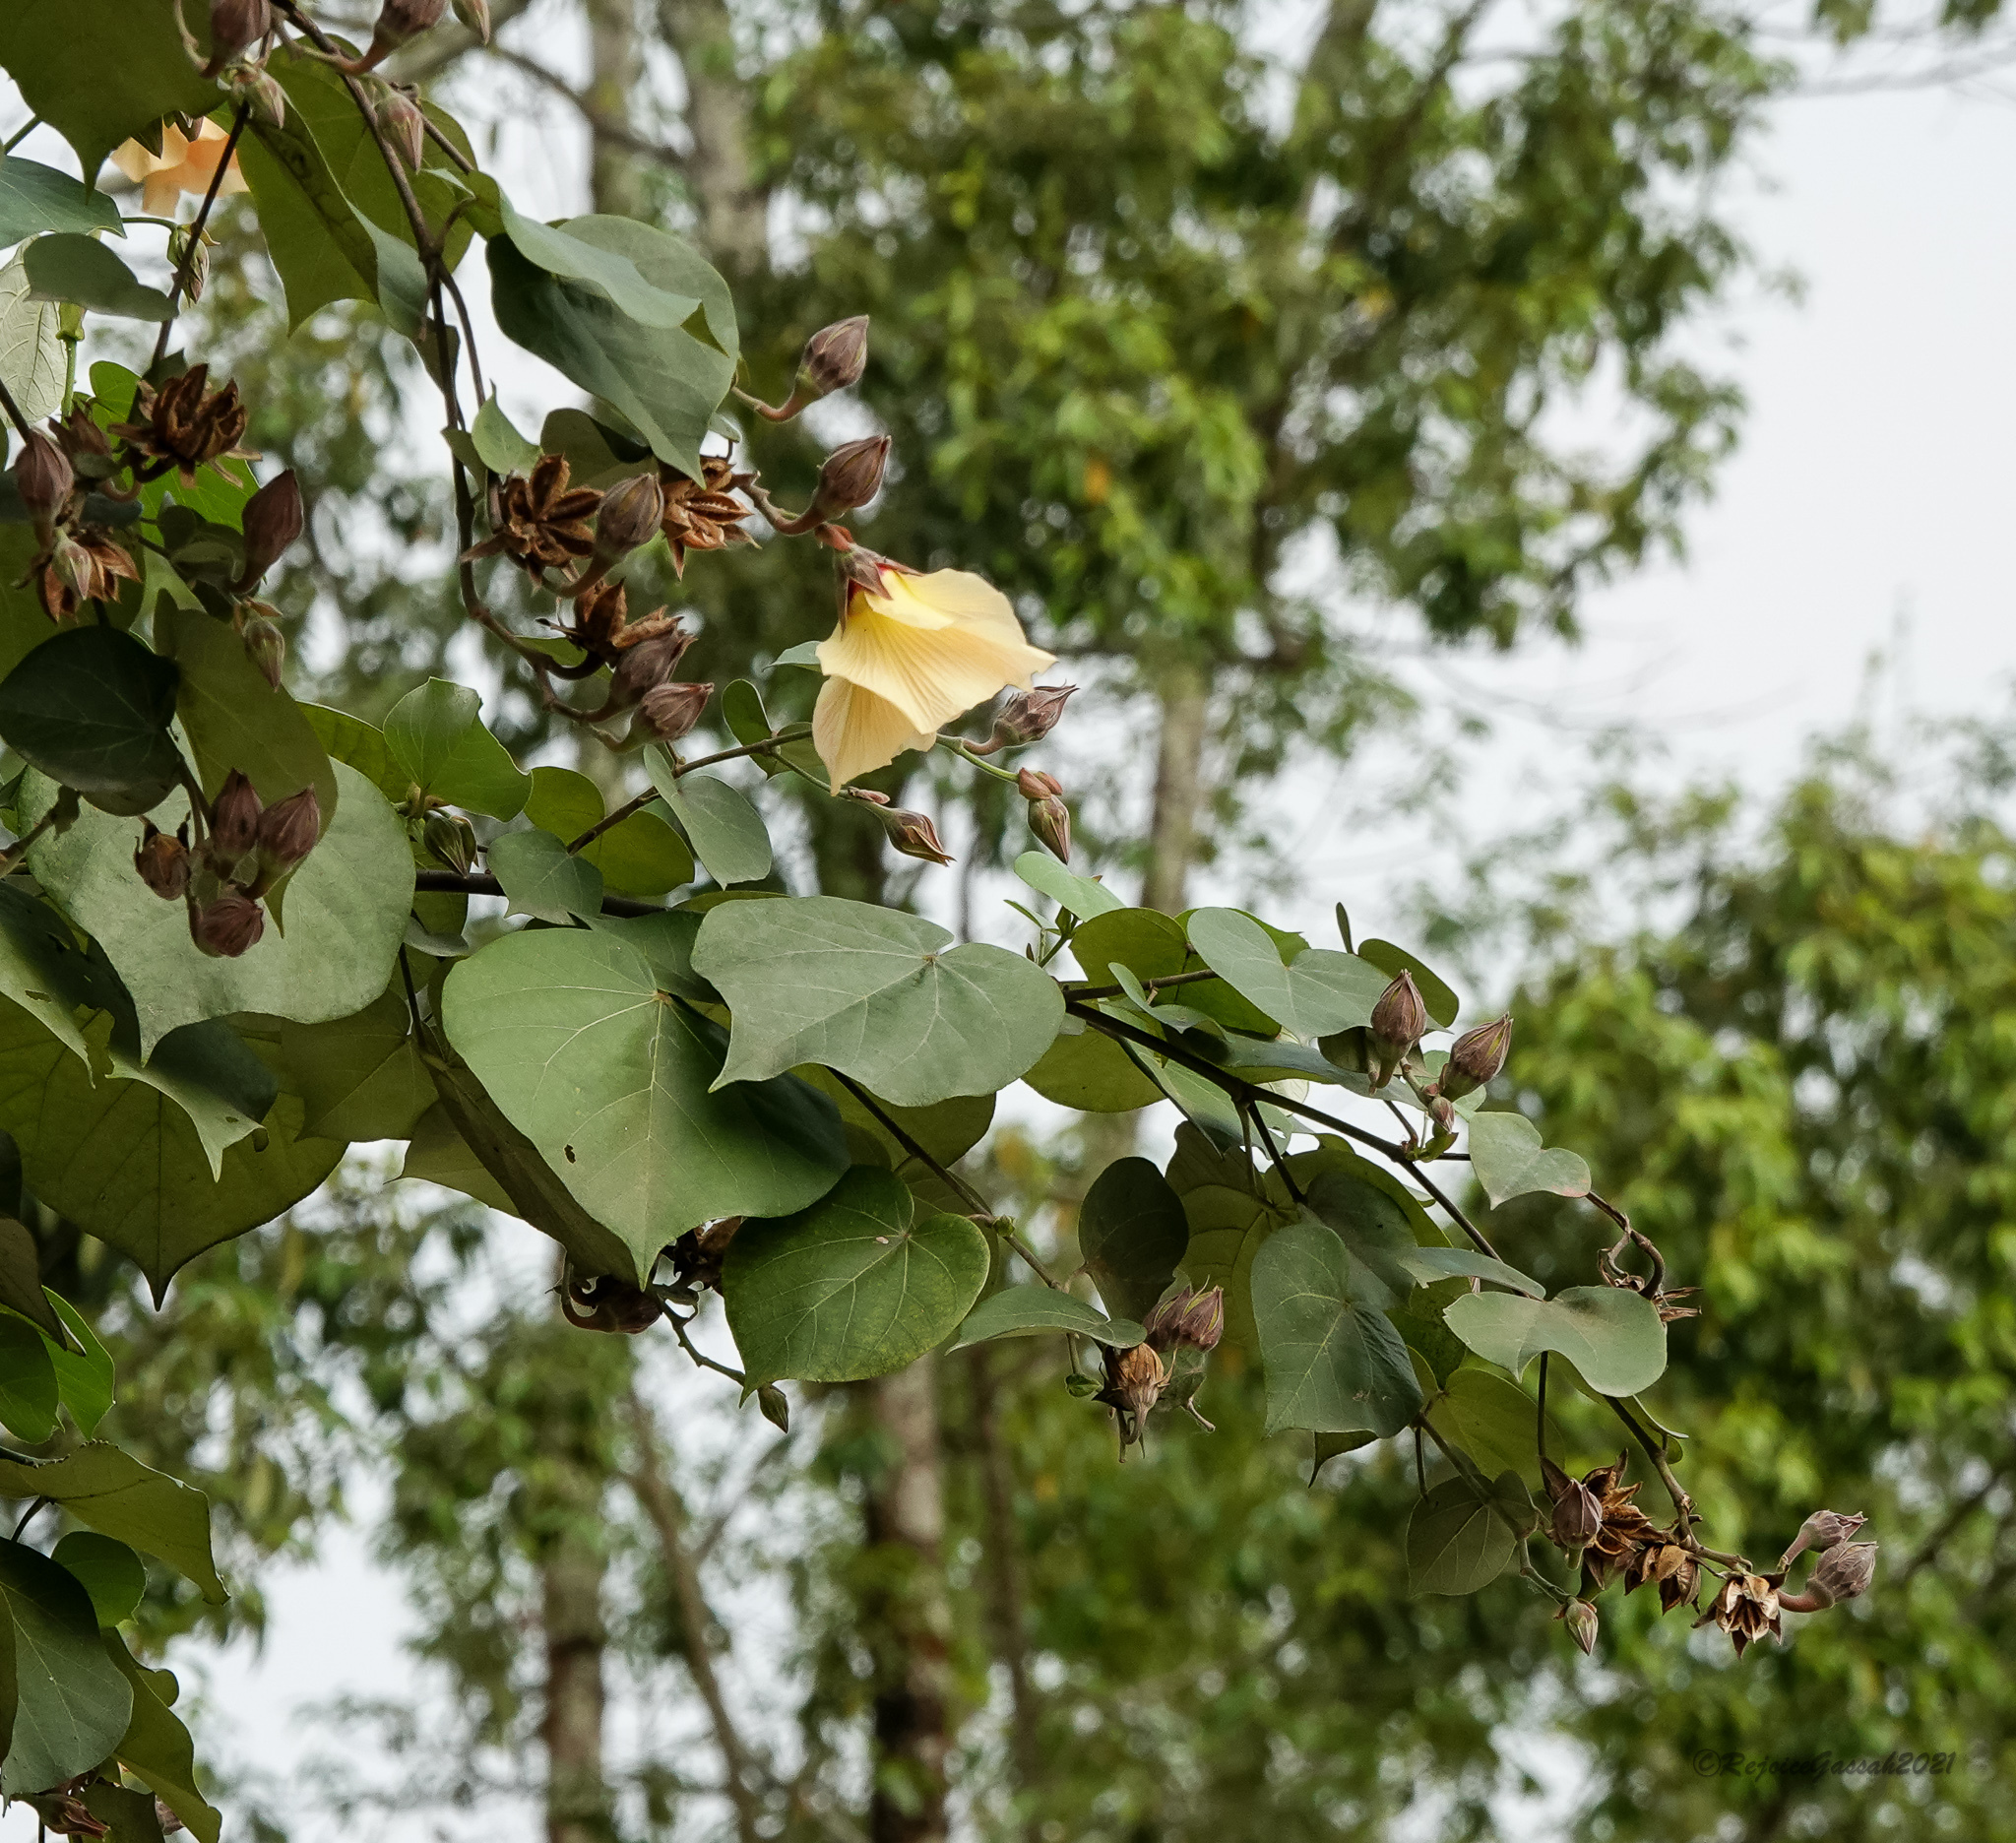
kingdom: Plantae
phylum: Tracheophyta
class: Magnoliopsida
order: Malvales
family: Malvaceae
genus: Talipariti
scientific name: Talipariti tiliaceum
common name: Sea hibiscus
